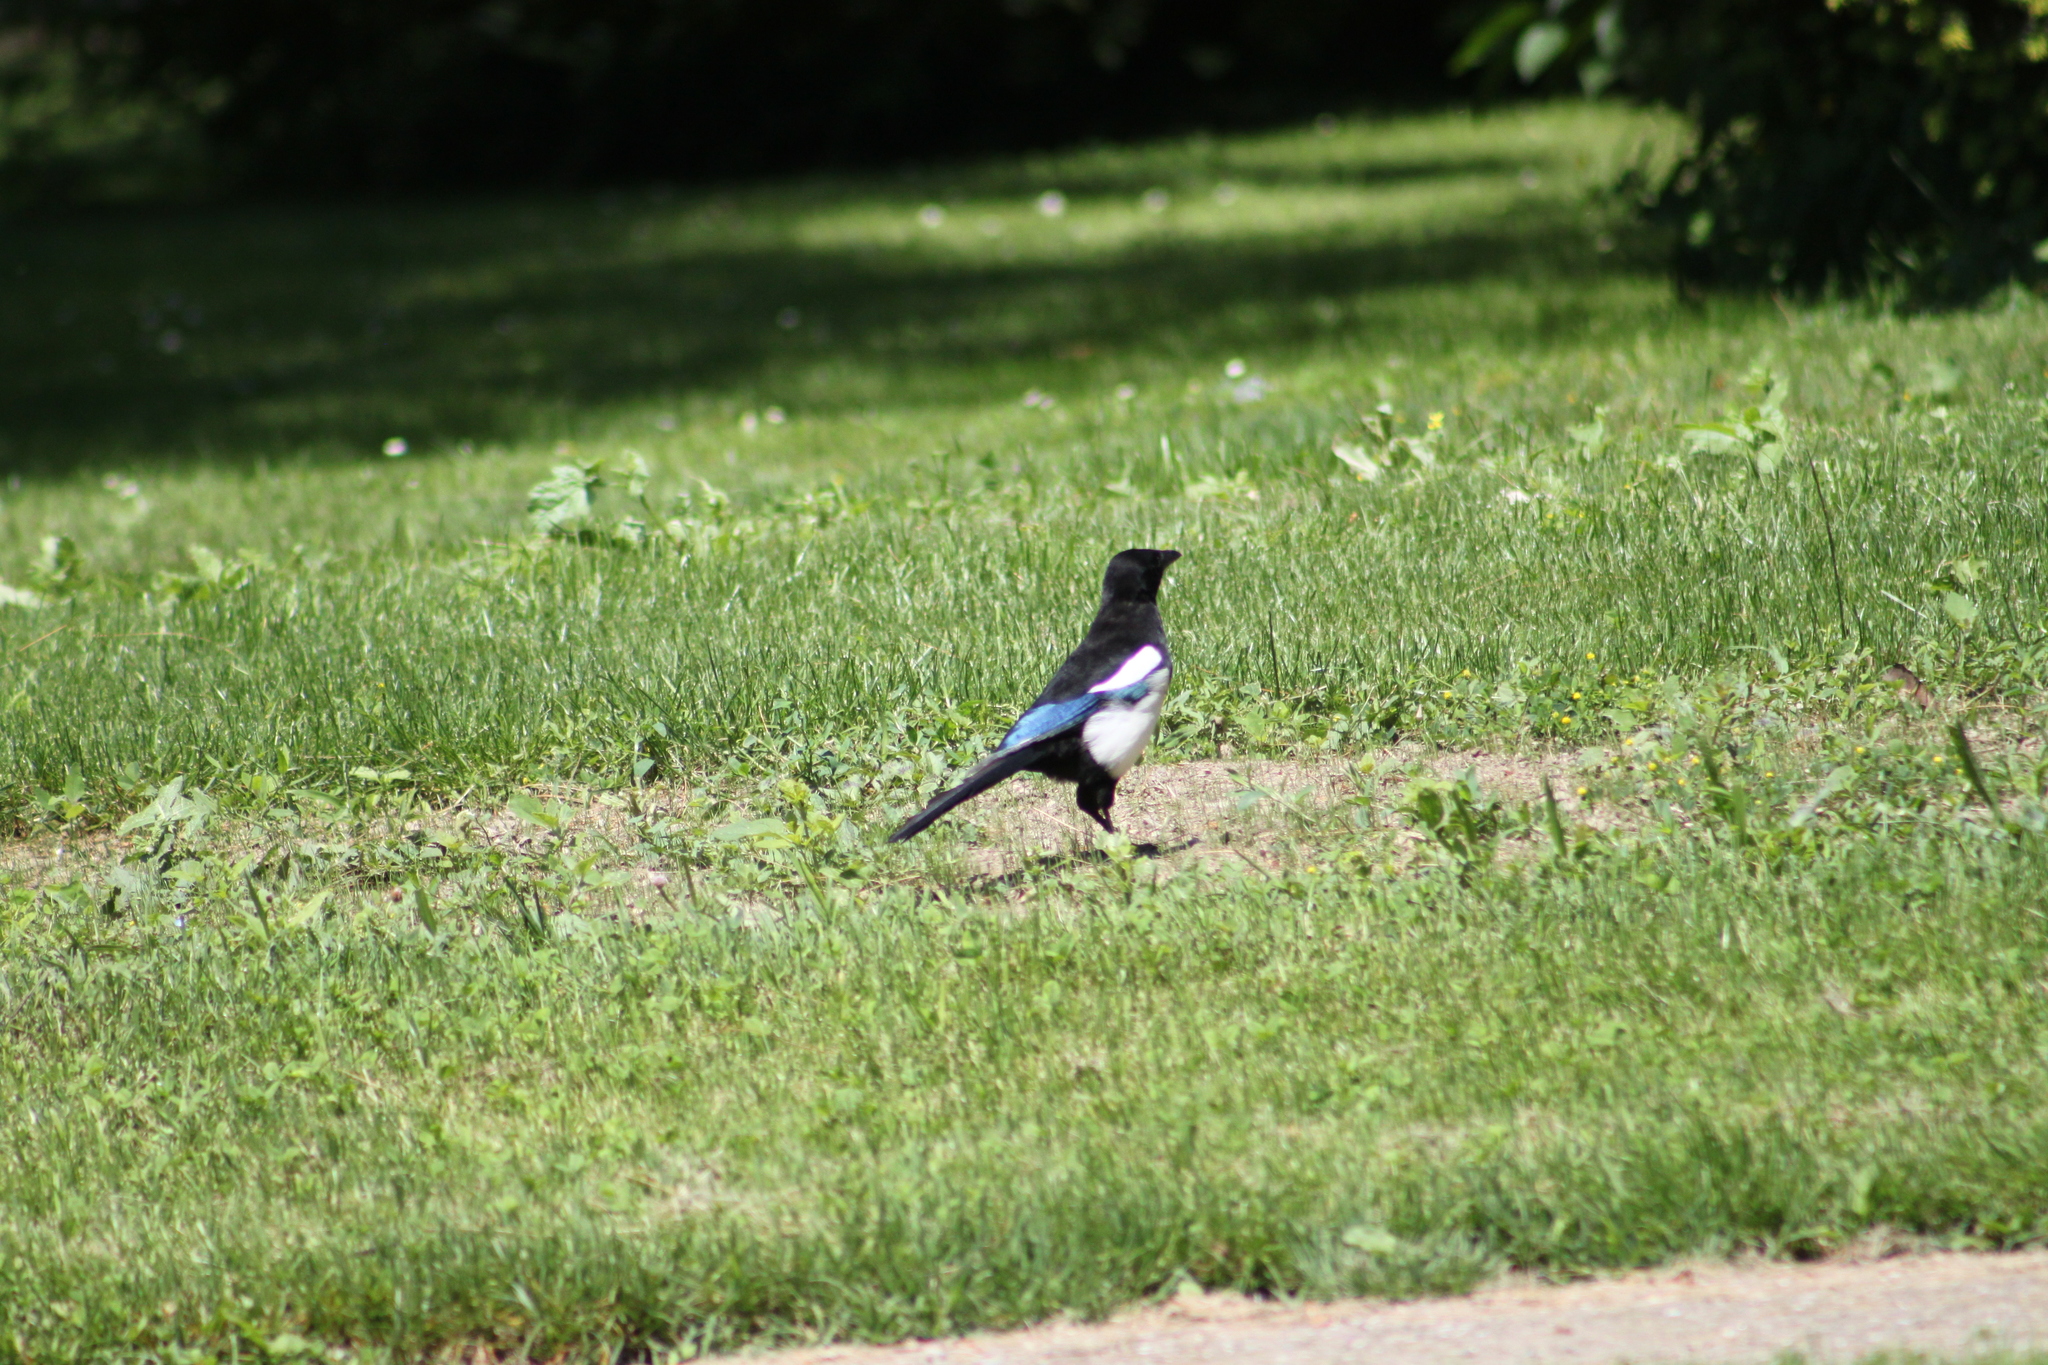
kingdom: Animalia
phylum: Chordata
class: Aves
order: Passeriformes
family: Corvidae
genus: Pica
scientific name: Pica pica
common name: Eurasian magpie
